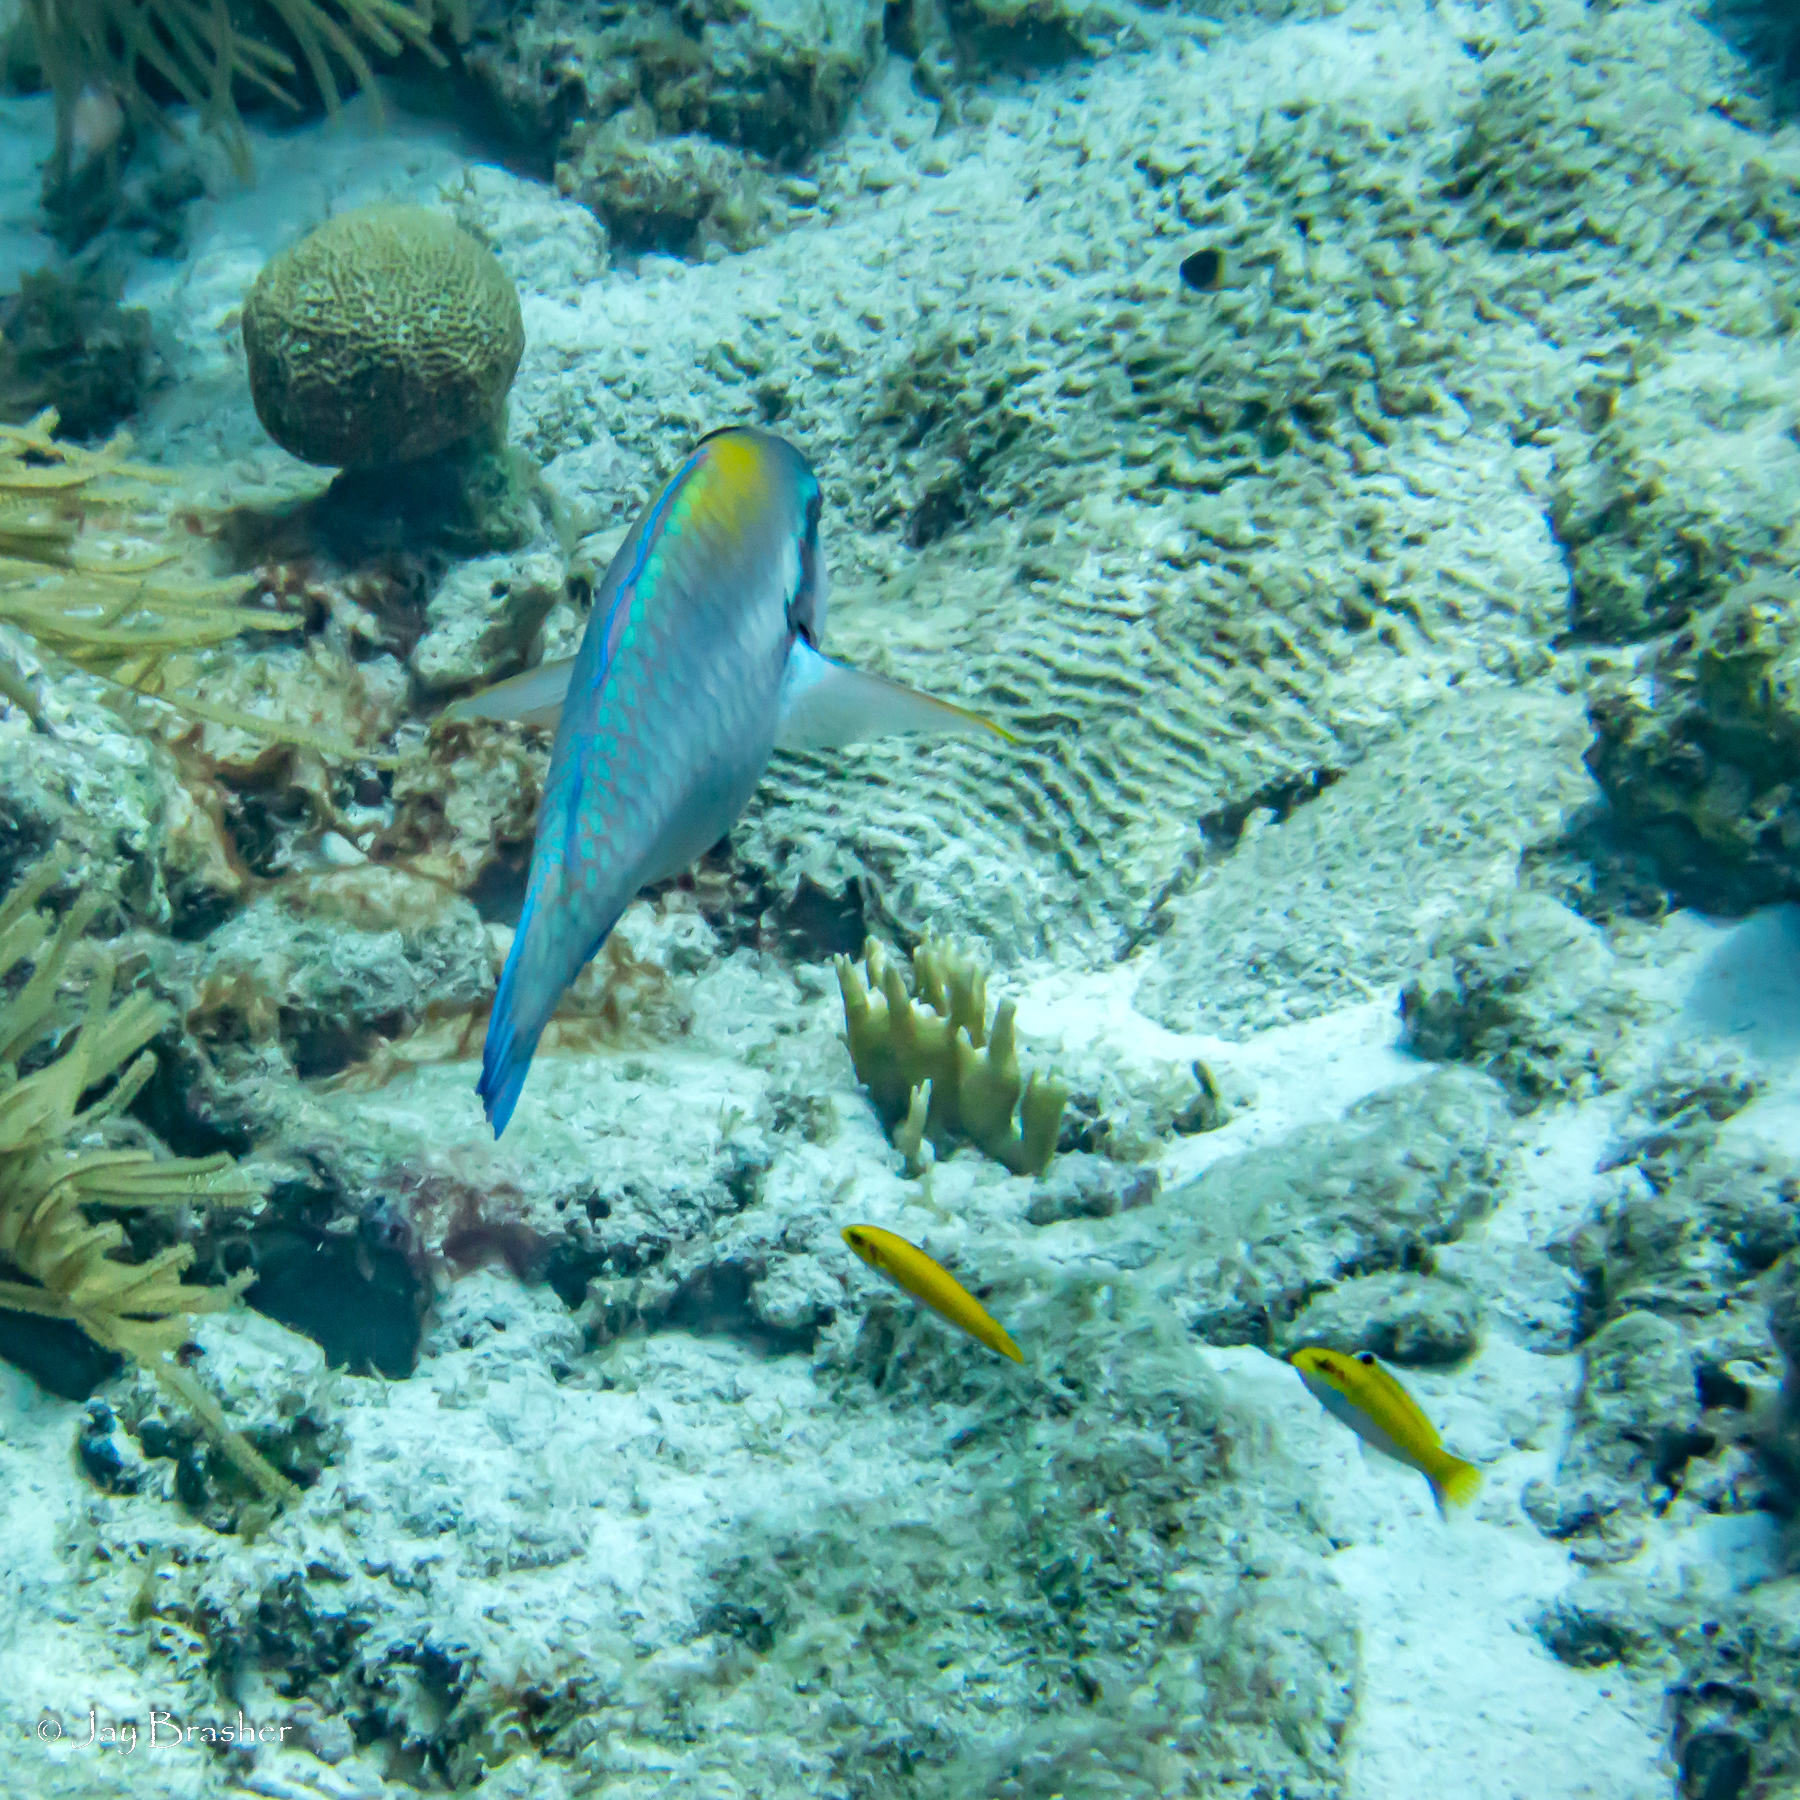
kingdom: Animalia
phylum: Chordata
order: Perciformes
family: Labridae
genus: Thalassoma
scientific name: Thalassoma bifasciatum
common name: Bluehead wrasse
